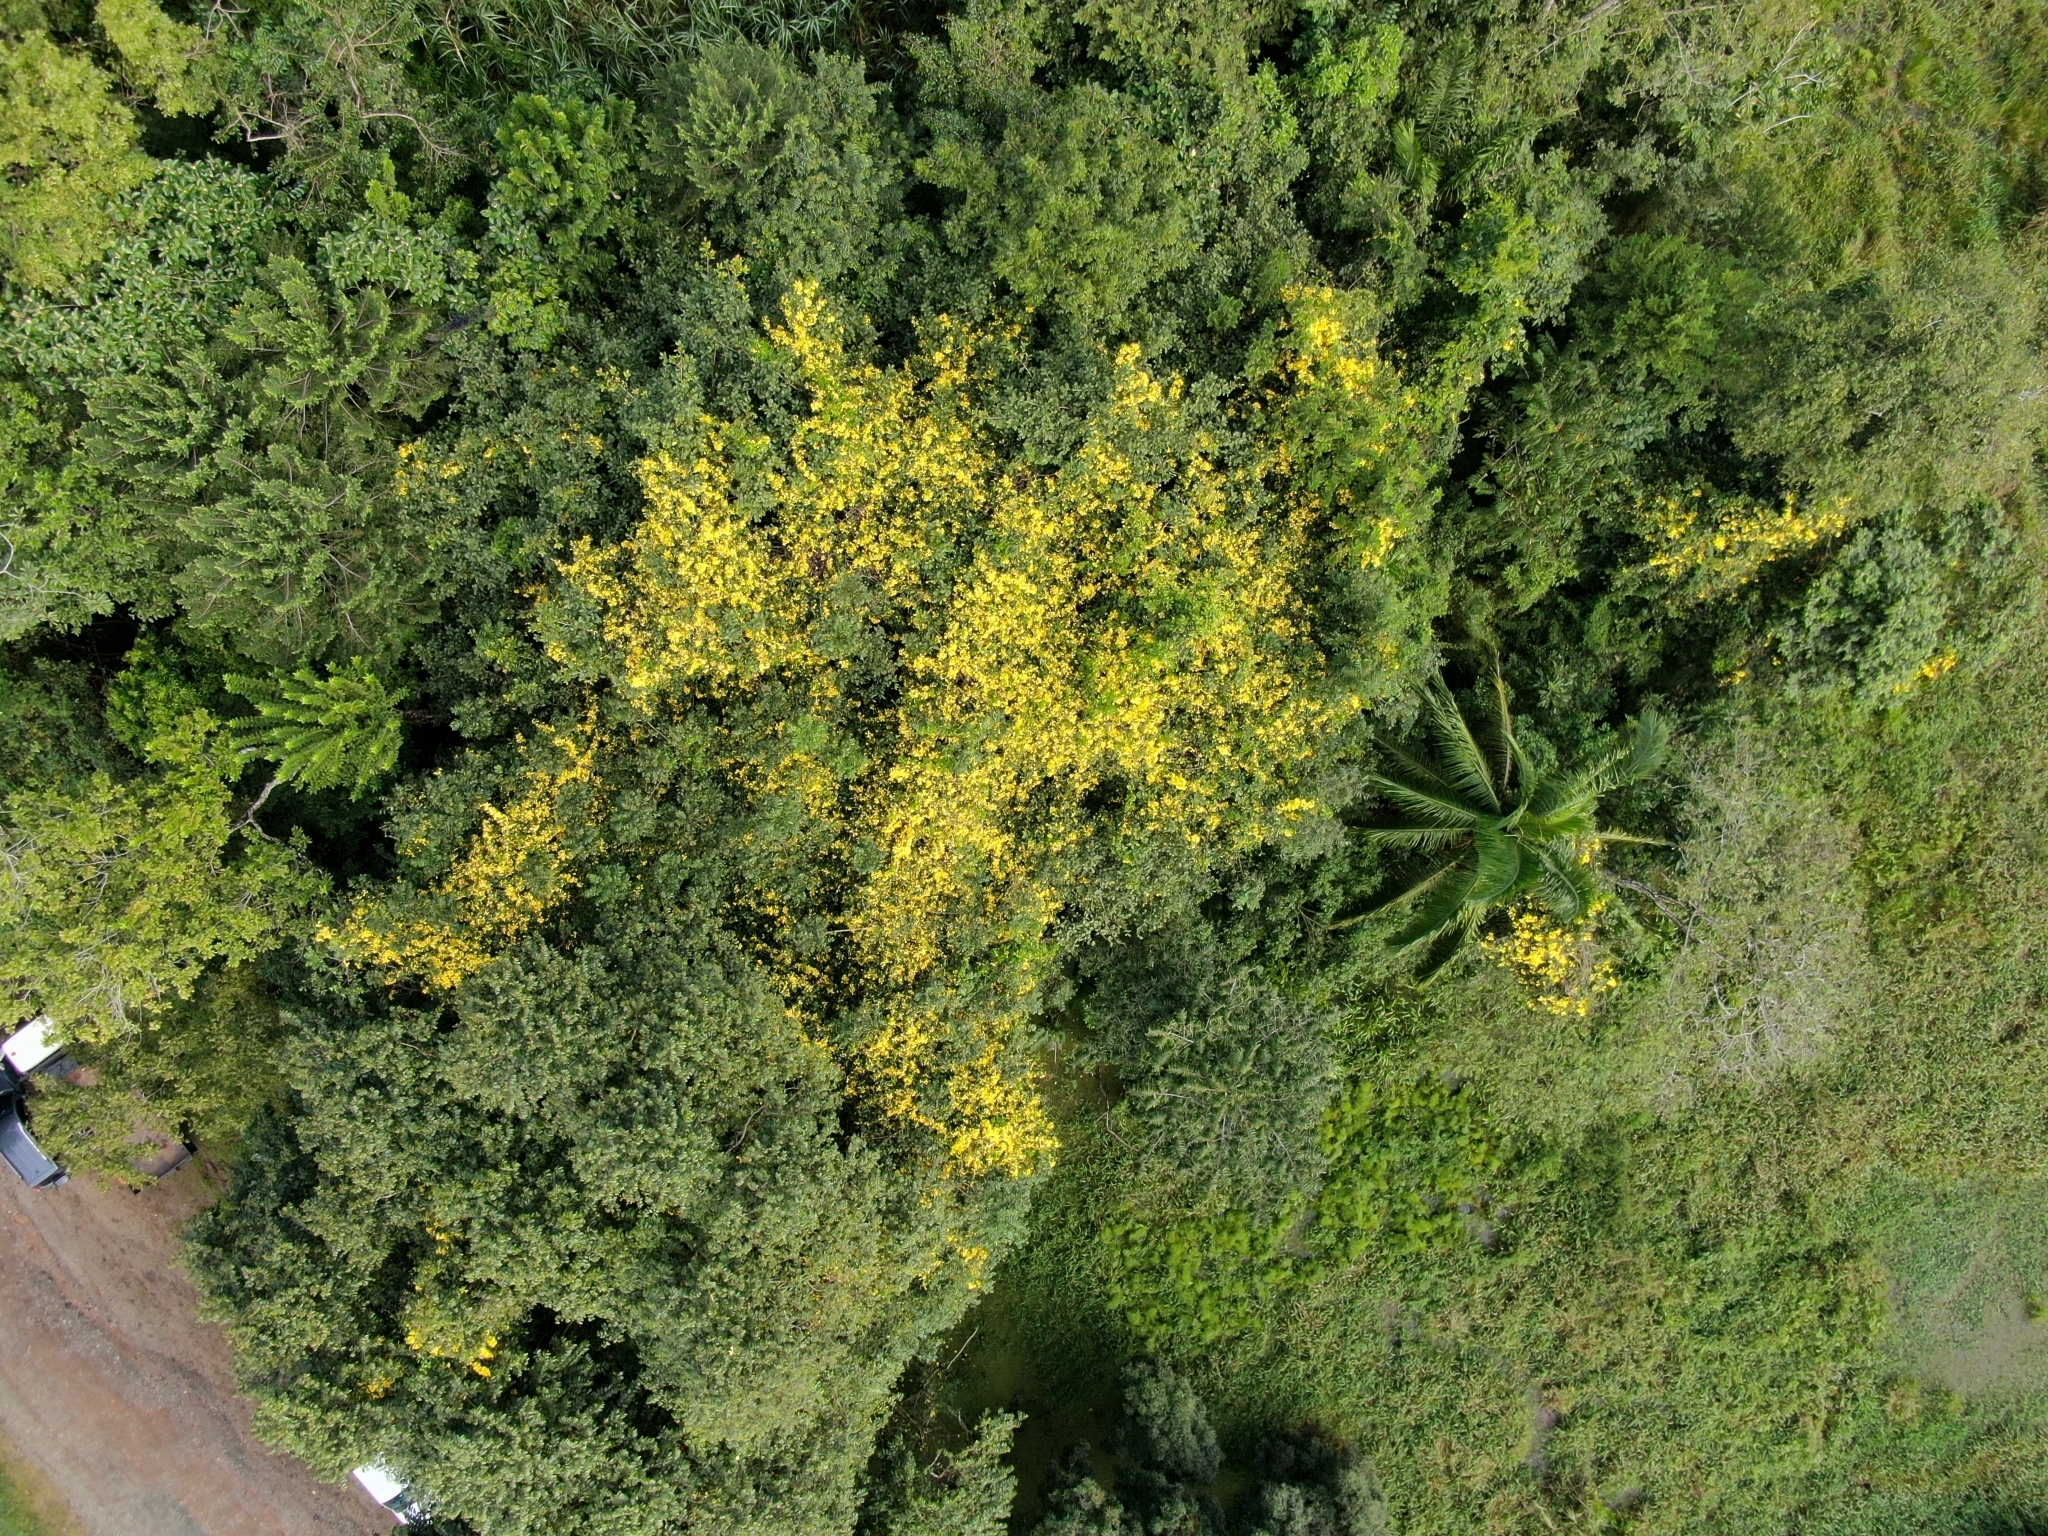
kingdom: Plantae
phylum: Tracheophyta
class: Magnoliopsida
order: Lamiales
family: Bignoniaceae
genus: Callichlamys
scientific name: Callichlamys latifolia
